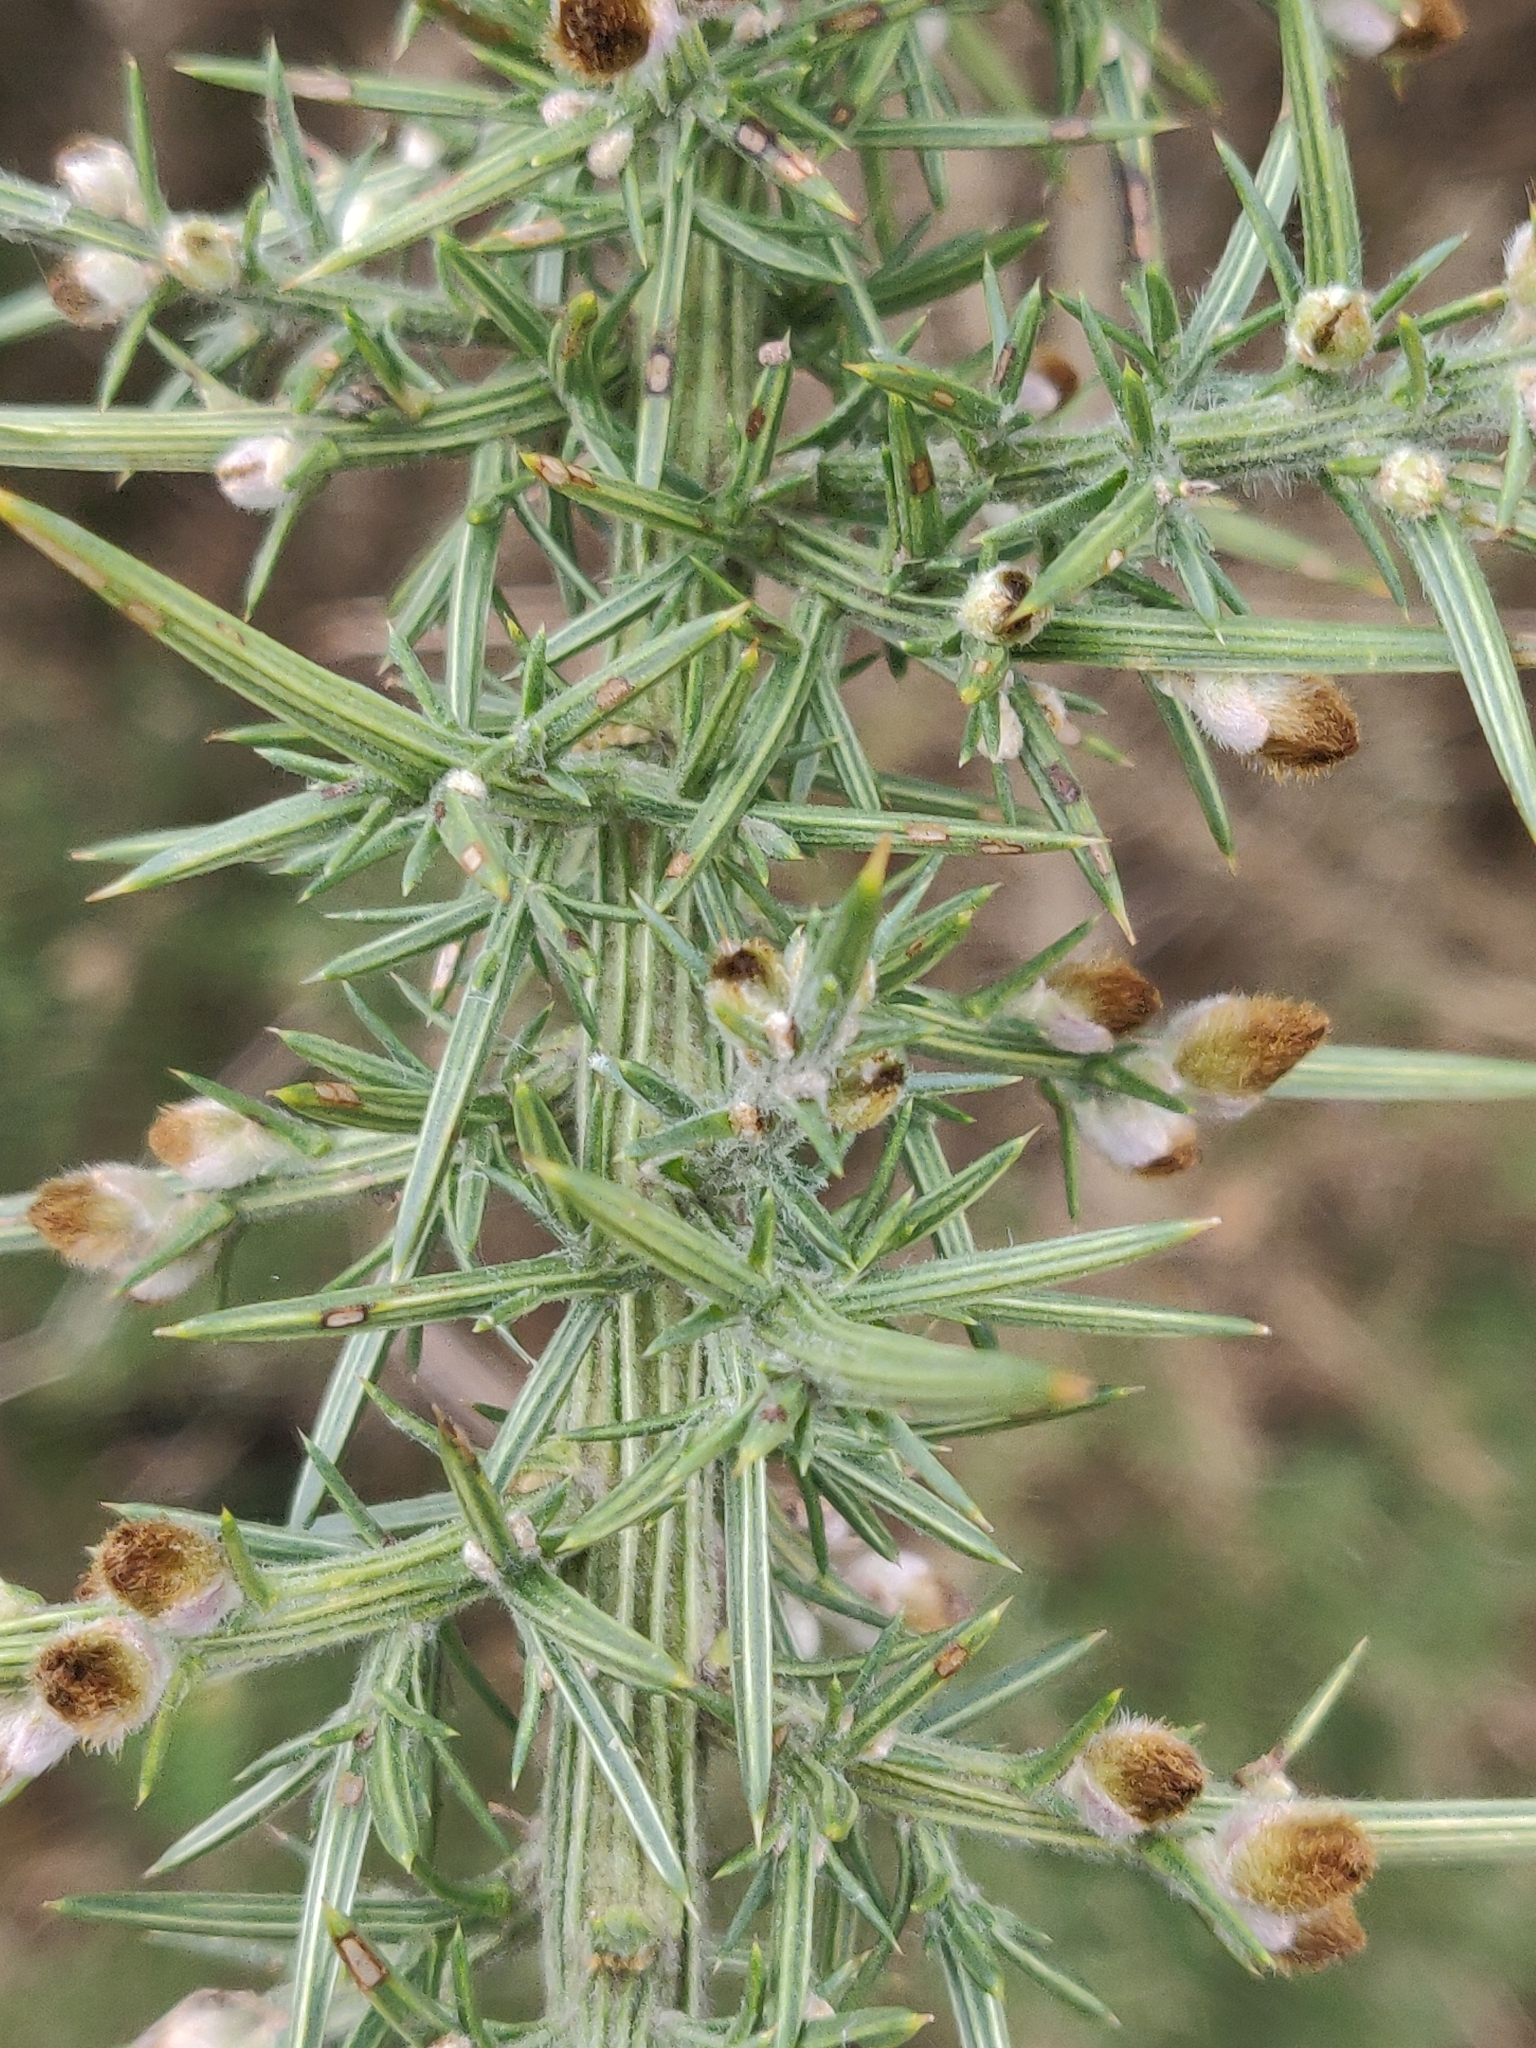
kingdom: Plantae
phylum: Tracheophyta
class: Magnoliopsida
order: Fabales
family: Fabaceae
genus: Ulex
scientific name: Ulex europaeus
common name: Common gorse
